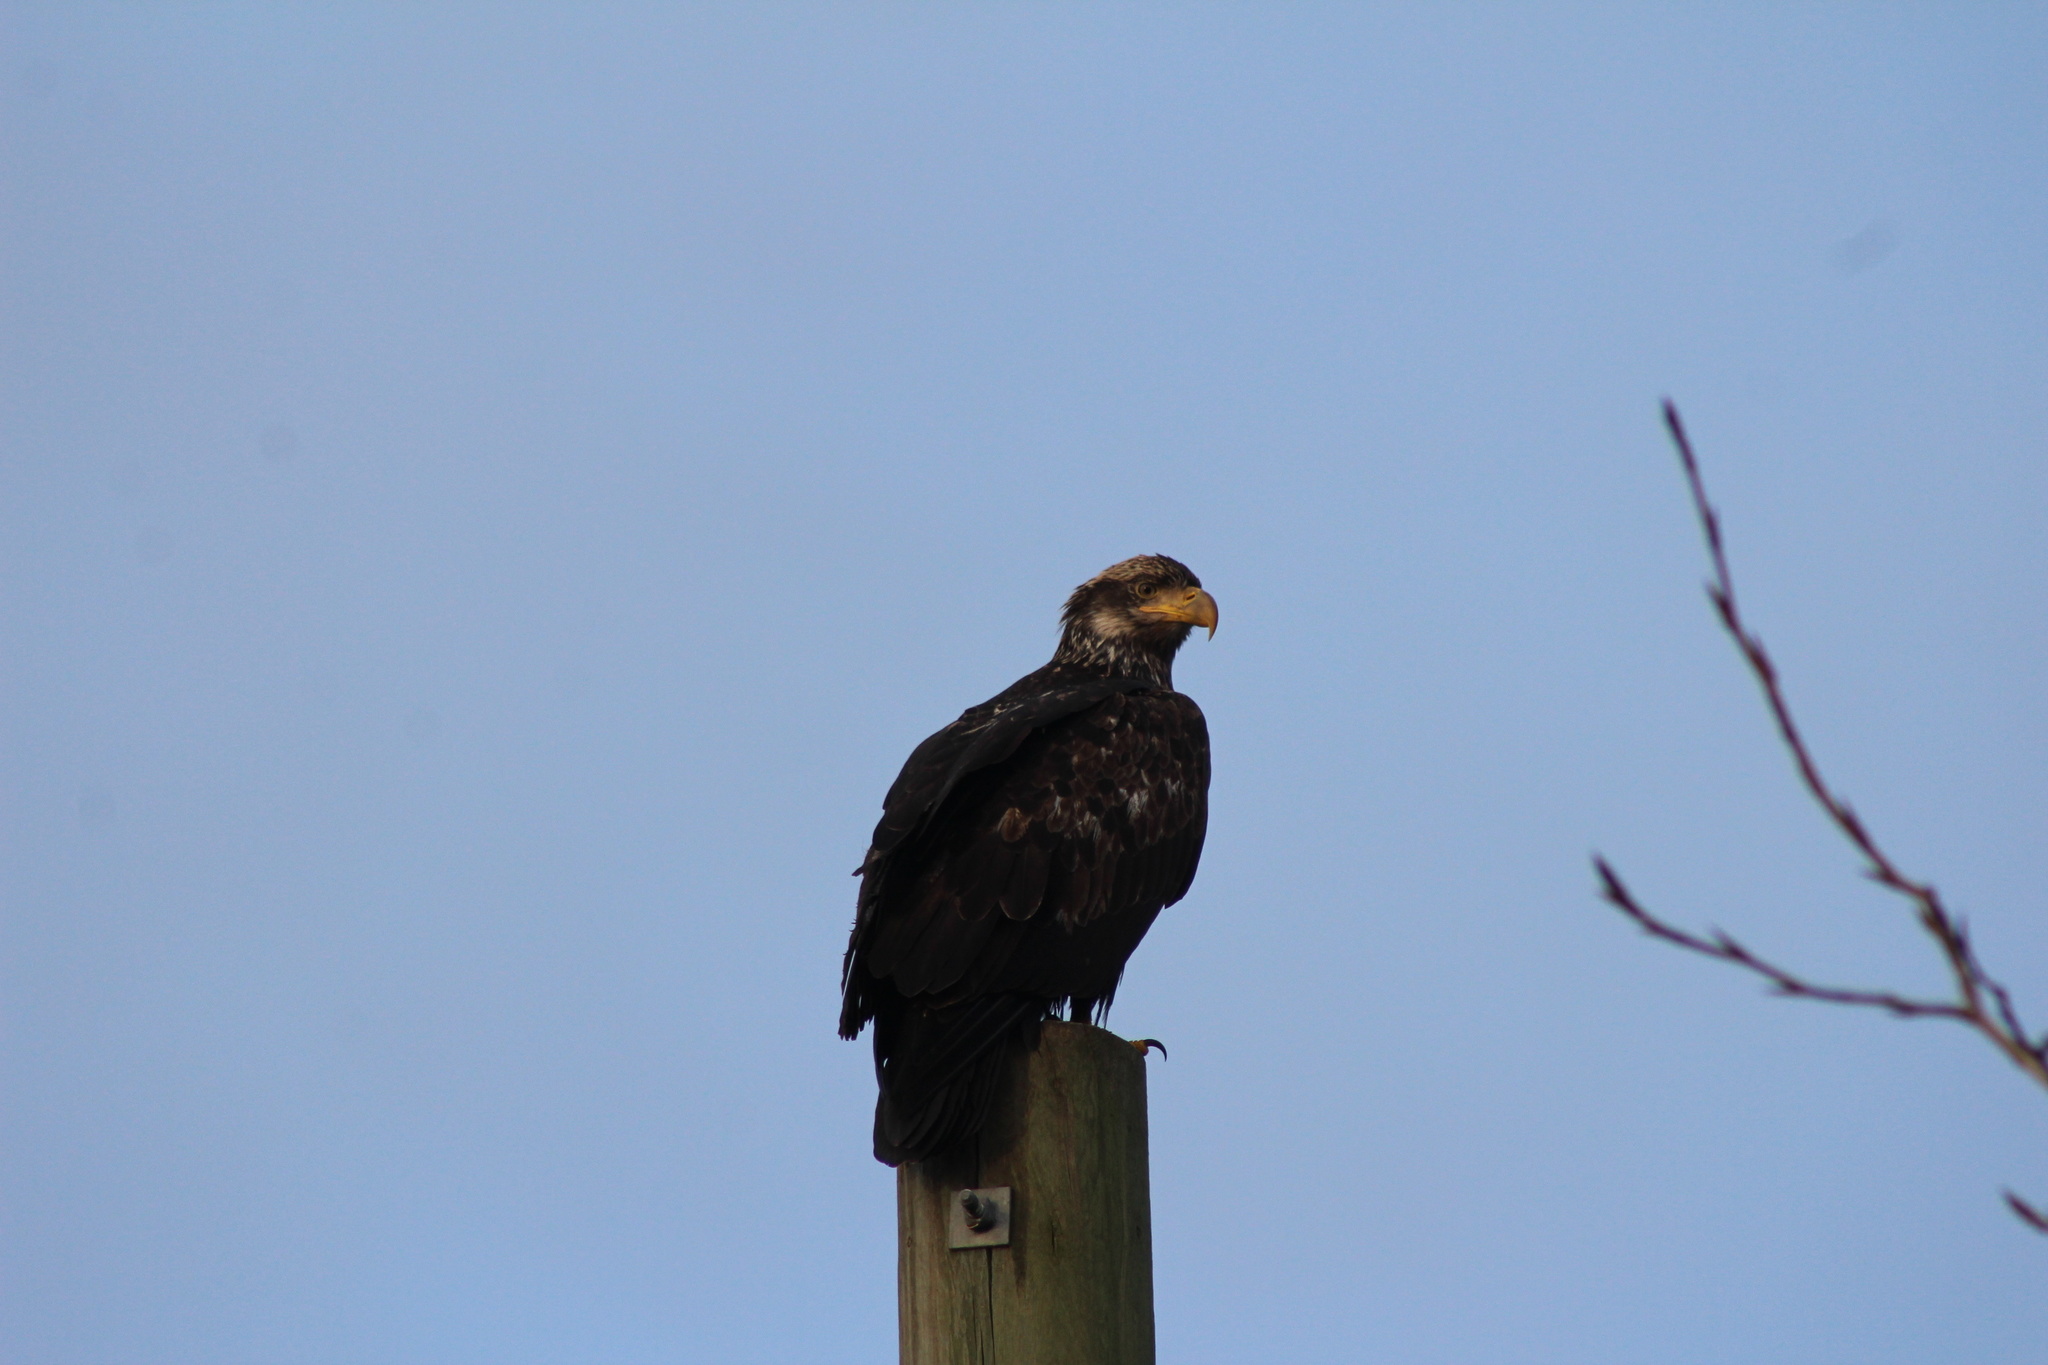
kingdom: Animalia
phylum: Chordata
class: Aves
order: Accipitriformes
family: Accipitridae
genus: Haliaeetus
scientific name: Haliaeetus leucocephalus
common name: Bald eagle
